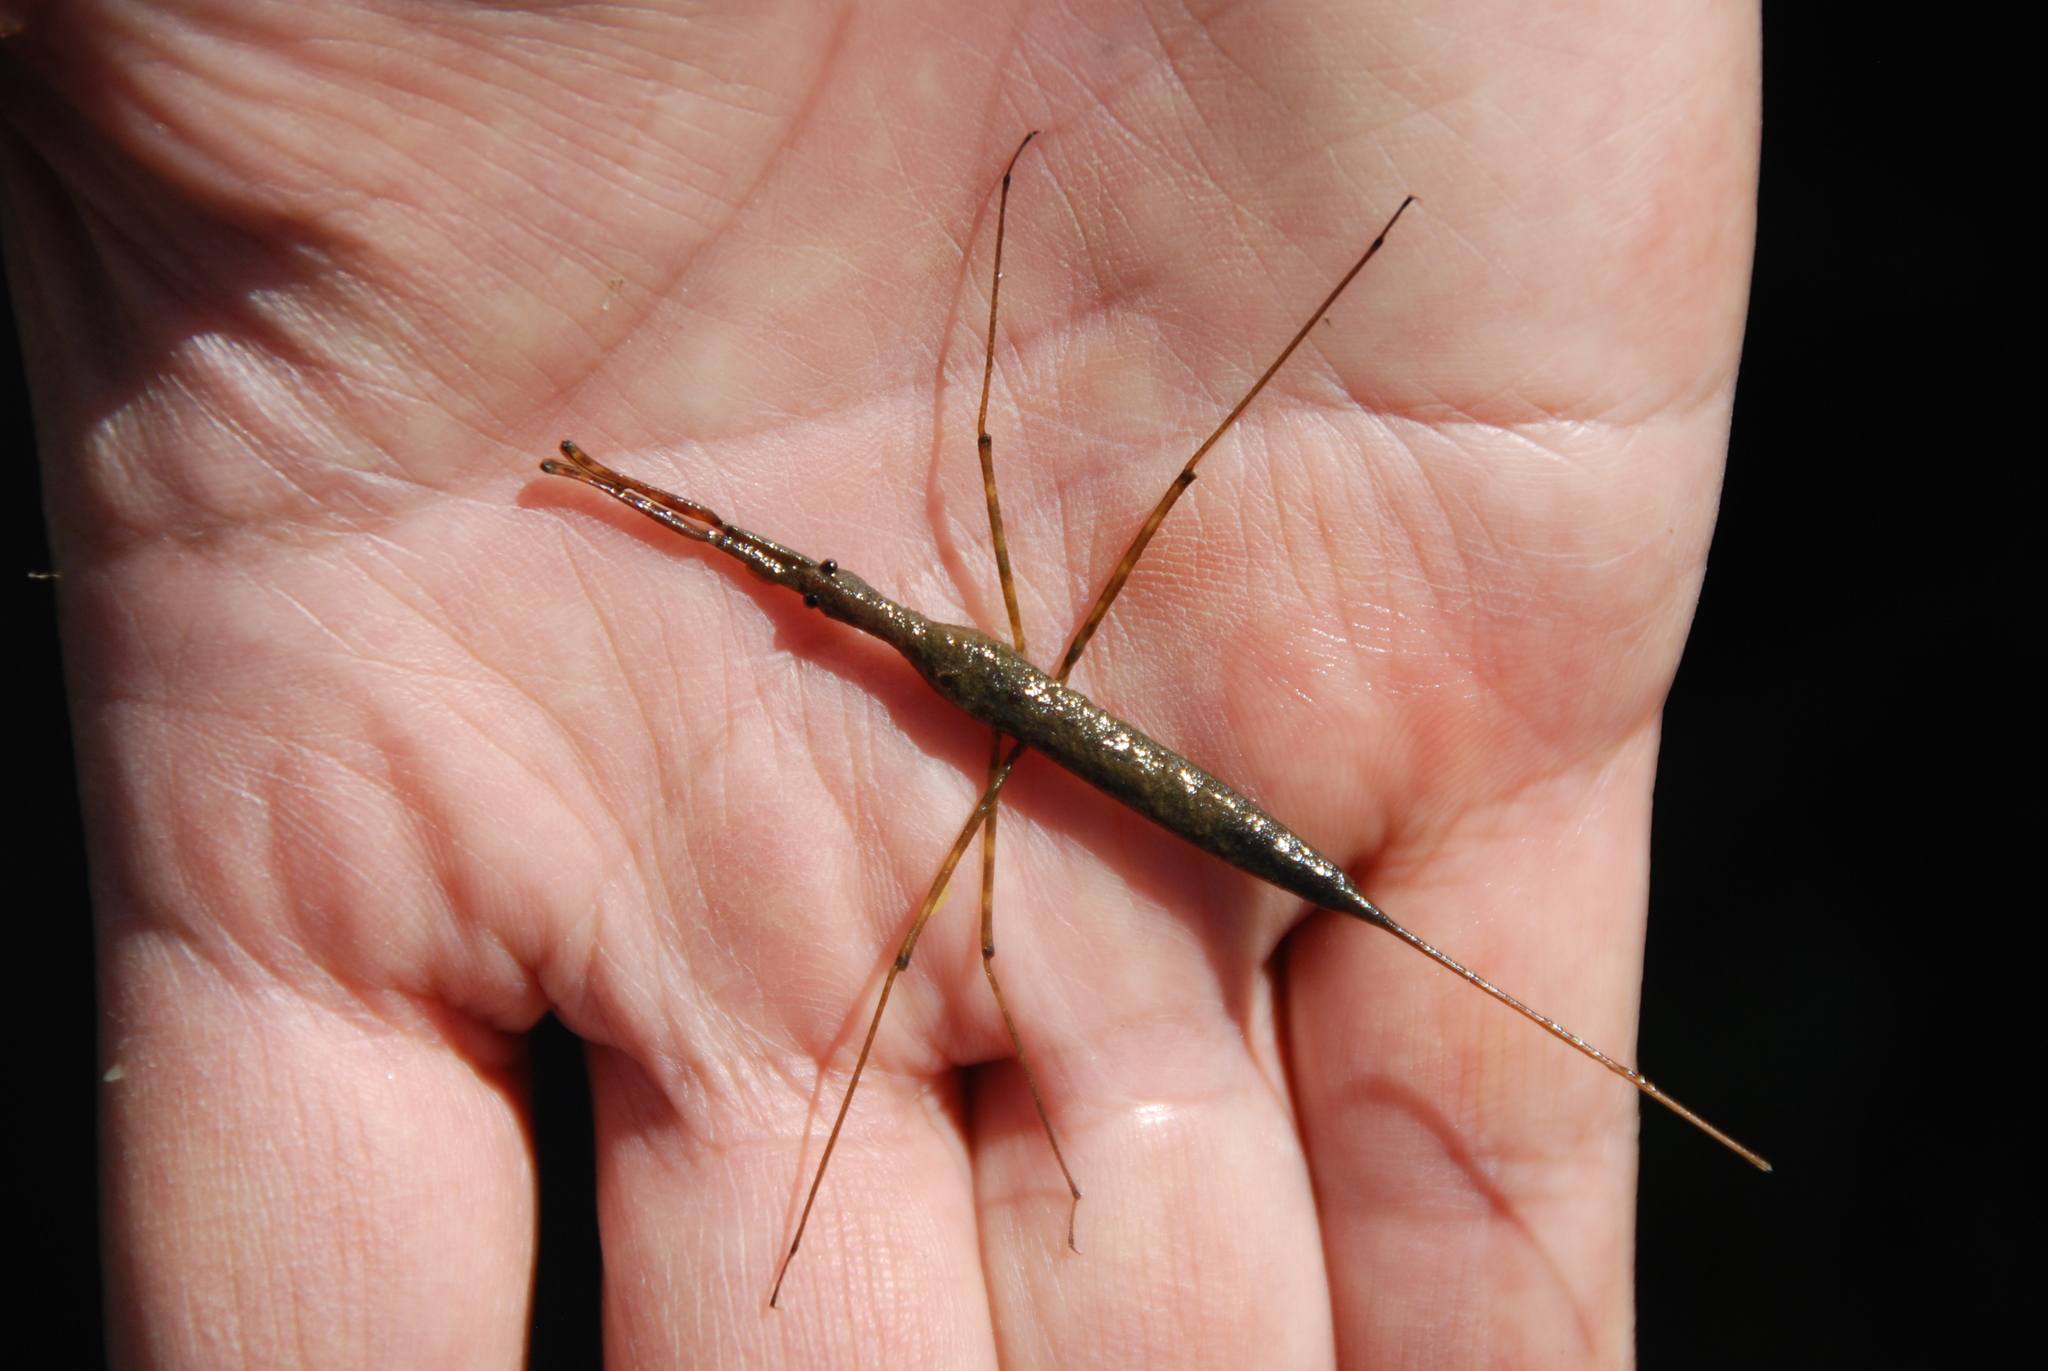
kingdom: Animalia
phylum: Arthropoda
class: Insecta
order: Hemiptera
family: Nepidae
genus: Ranatra
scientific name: Ranatra
